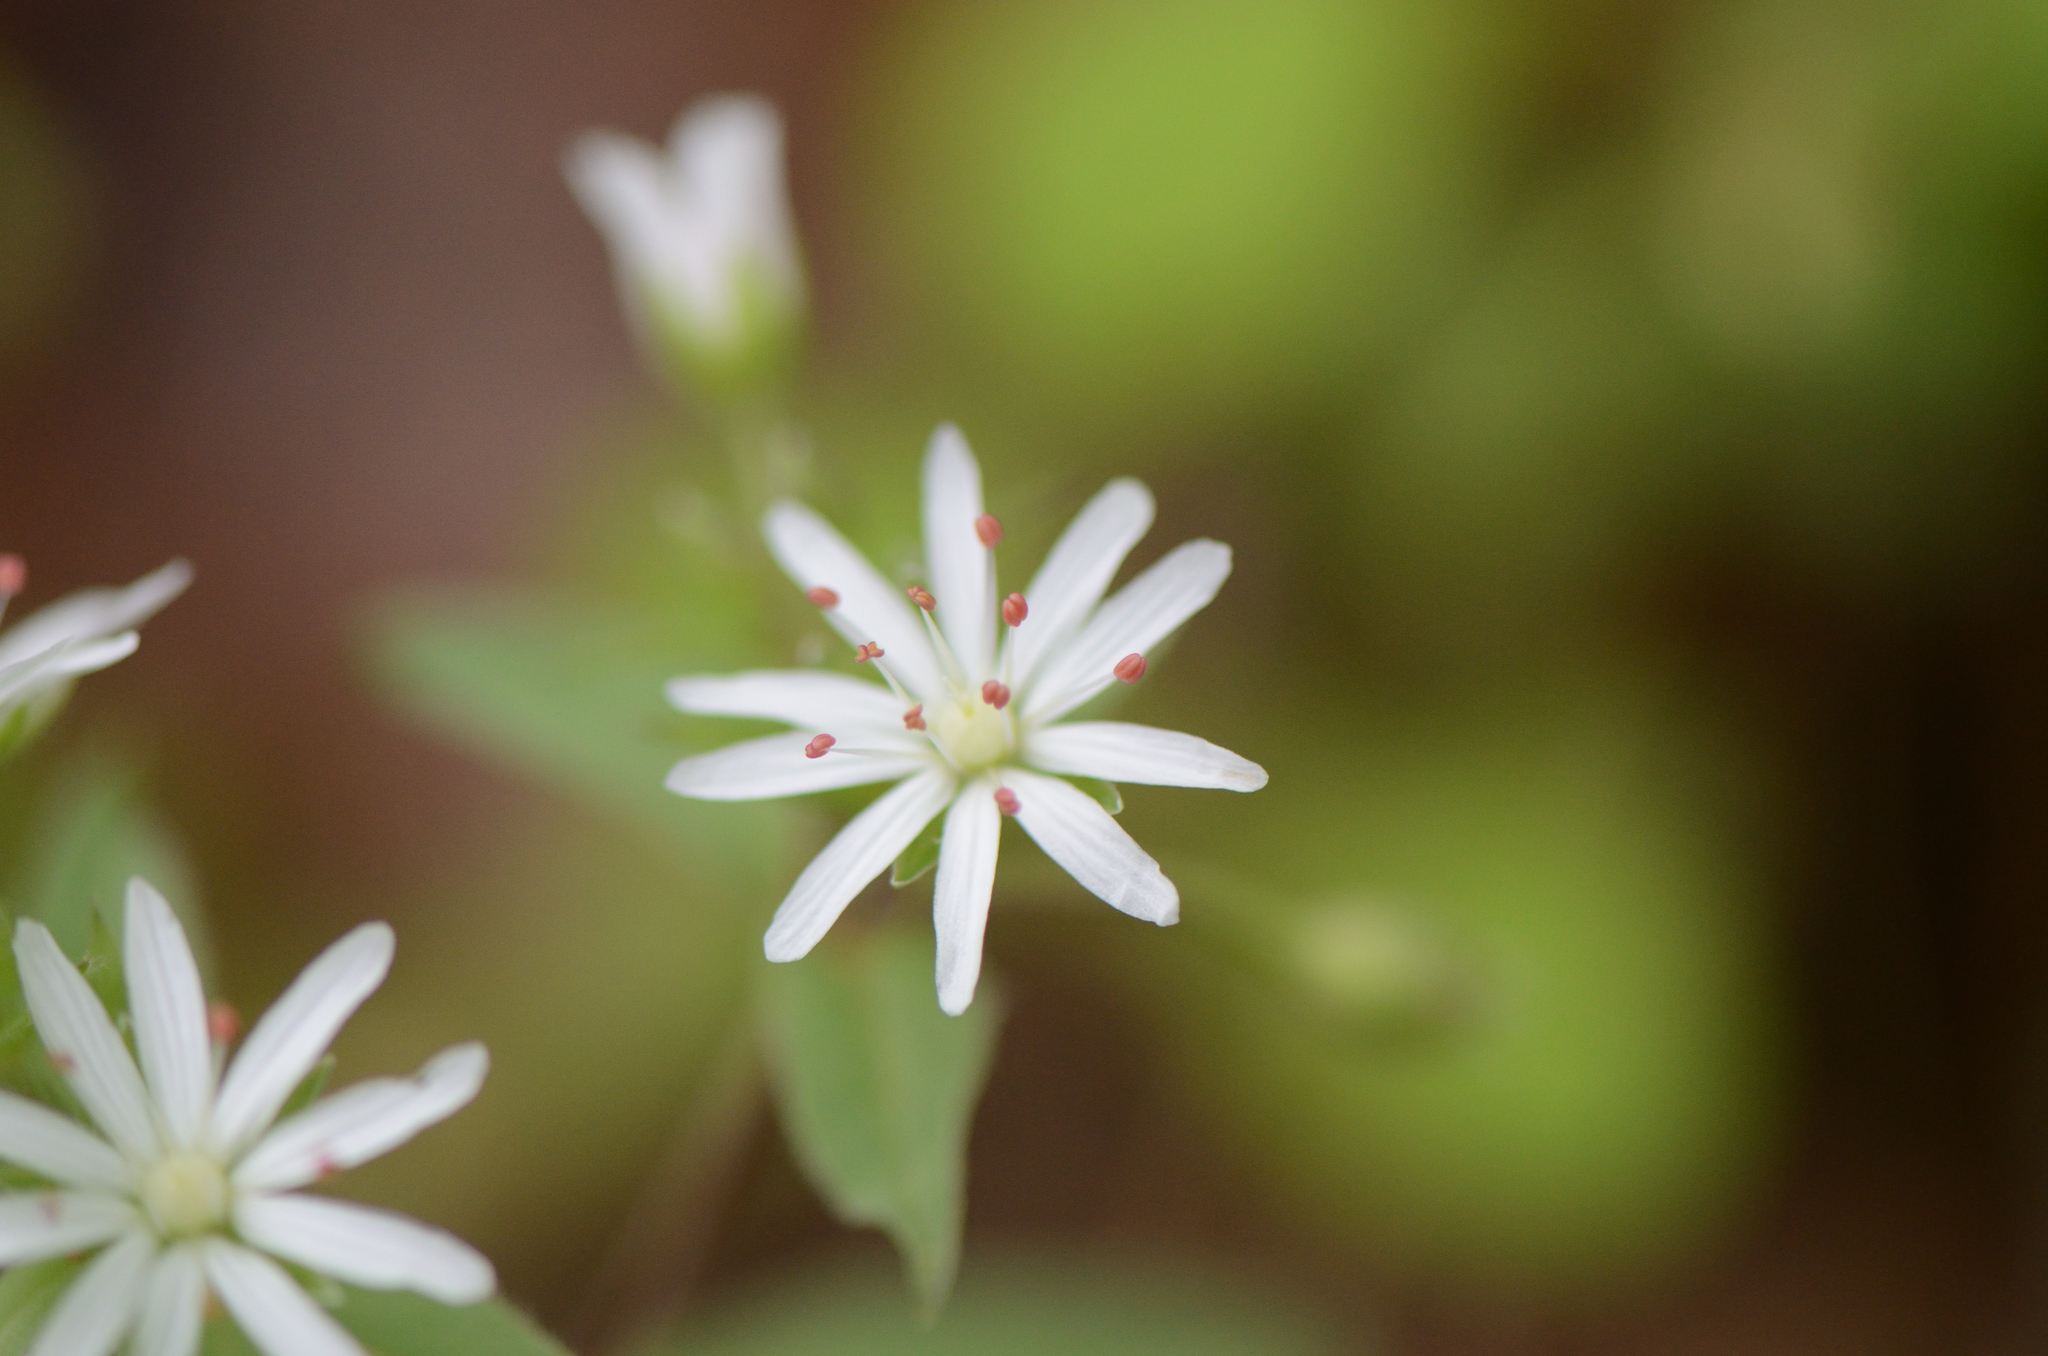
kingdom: Plantae
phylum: Tracheophyta
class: Magnoliopsida
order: Caryophyllales
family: Caryophyllaceae
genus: Stellaria
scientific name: Stellaria pubera
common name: Star chickweed
